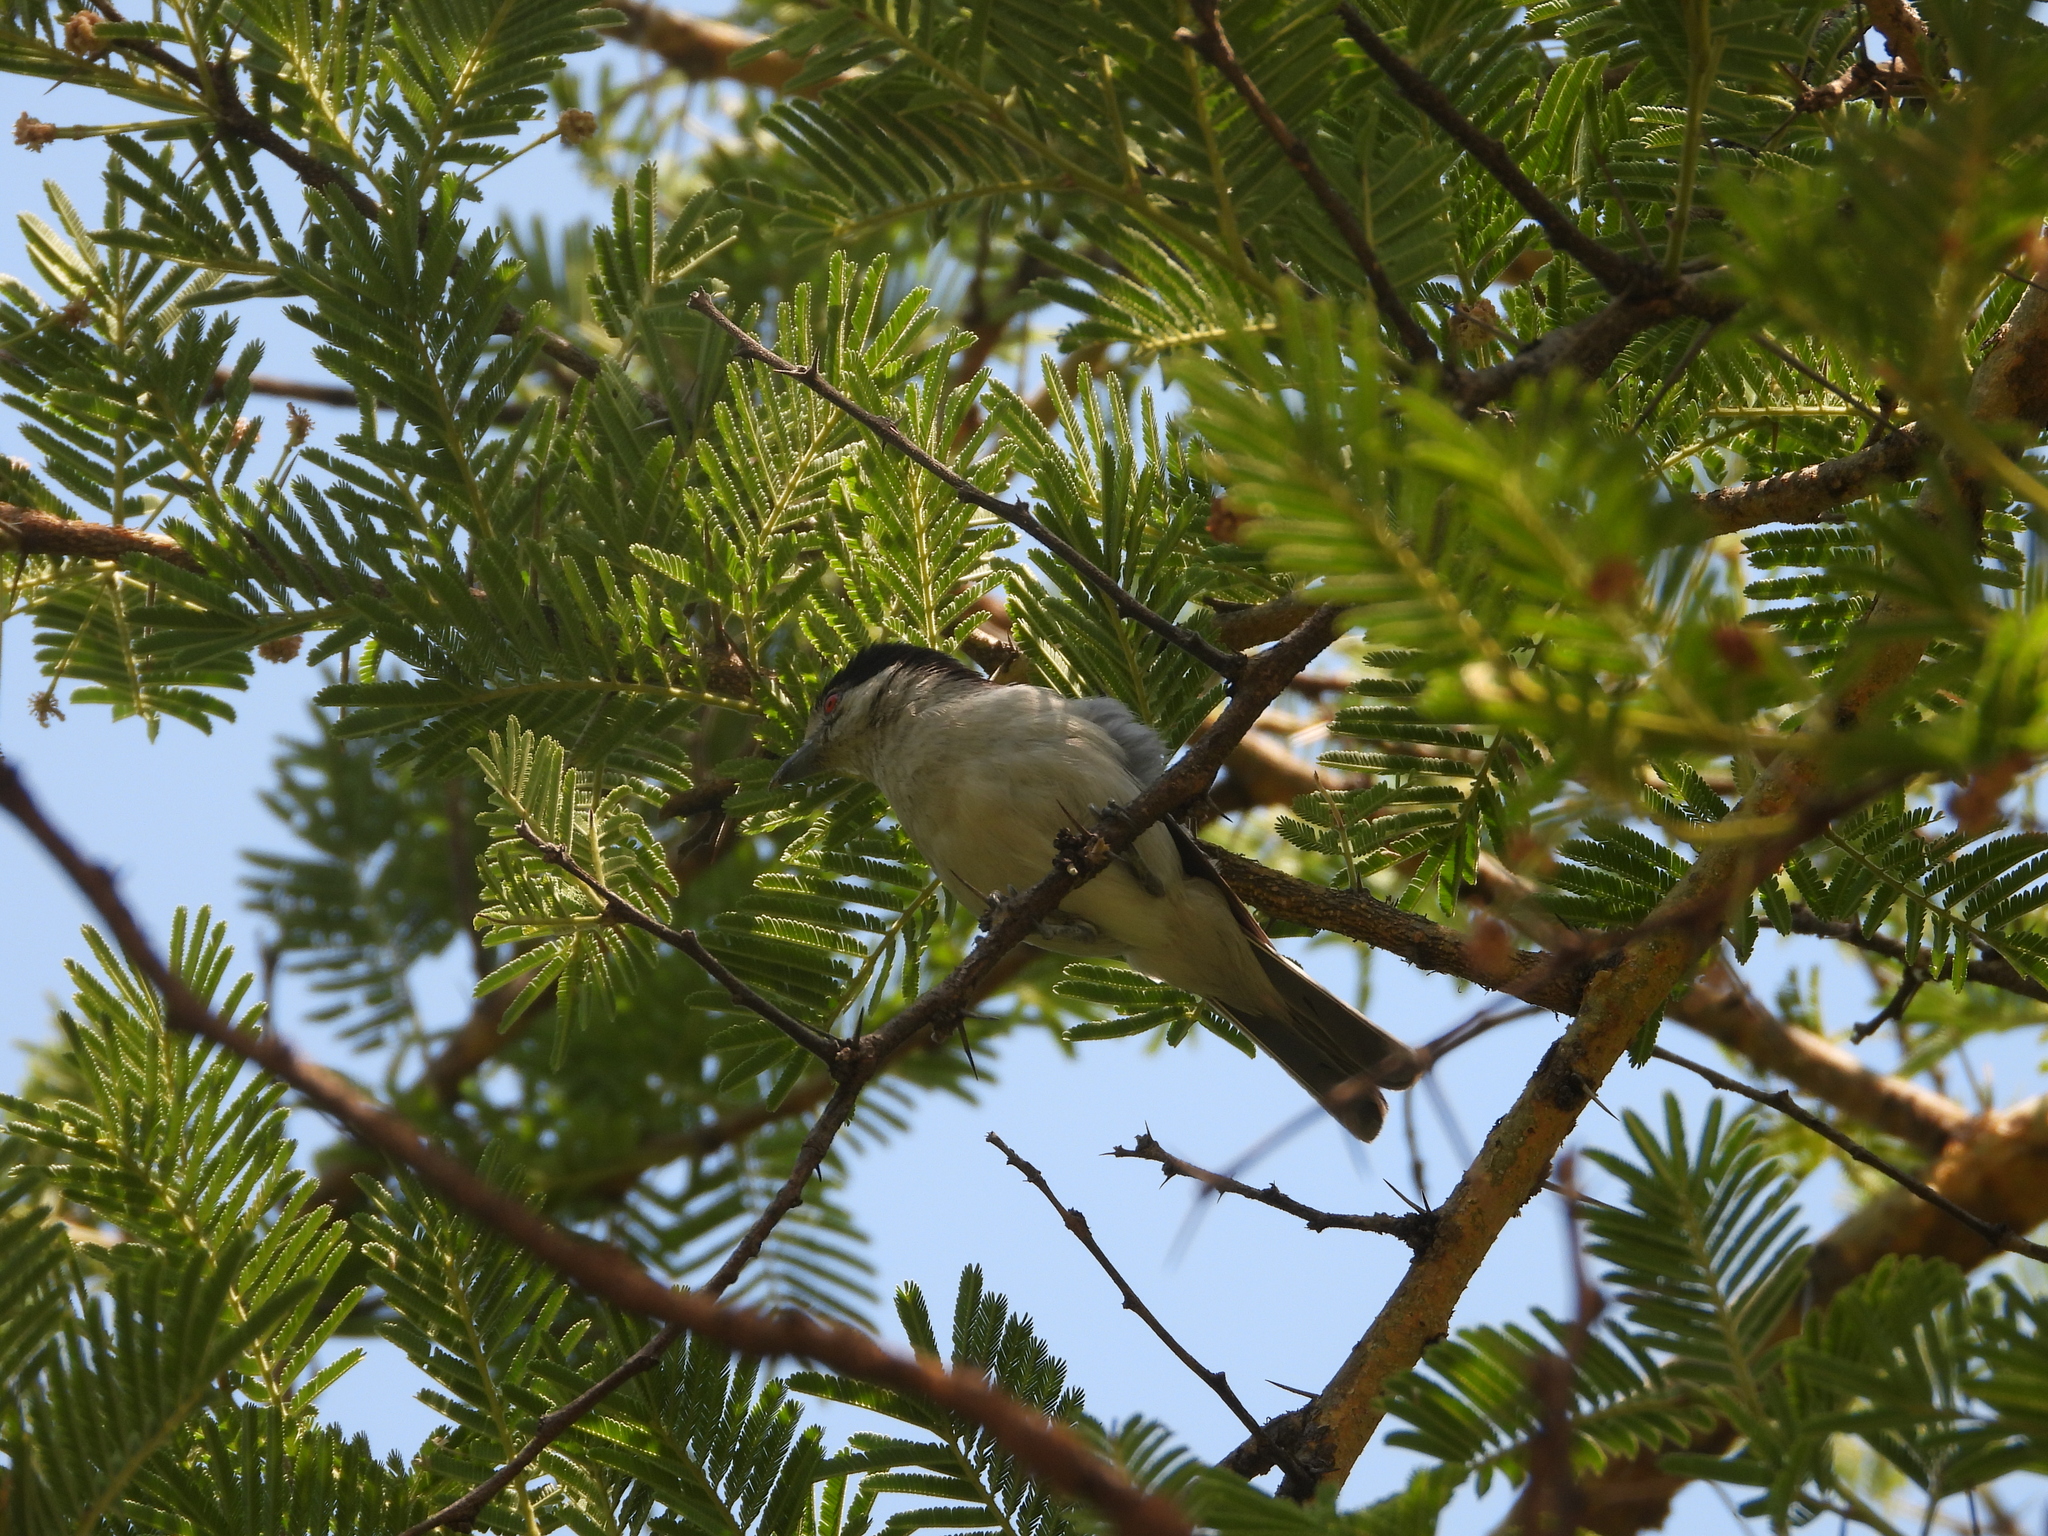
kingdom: Animalia
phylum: Chordata
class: Aves
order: Passeriformes
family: Malaconotidae
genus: Dryoscopus
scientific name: Dryoscopus cubla
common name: Black-backed puffback
